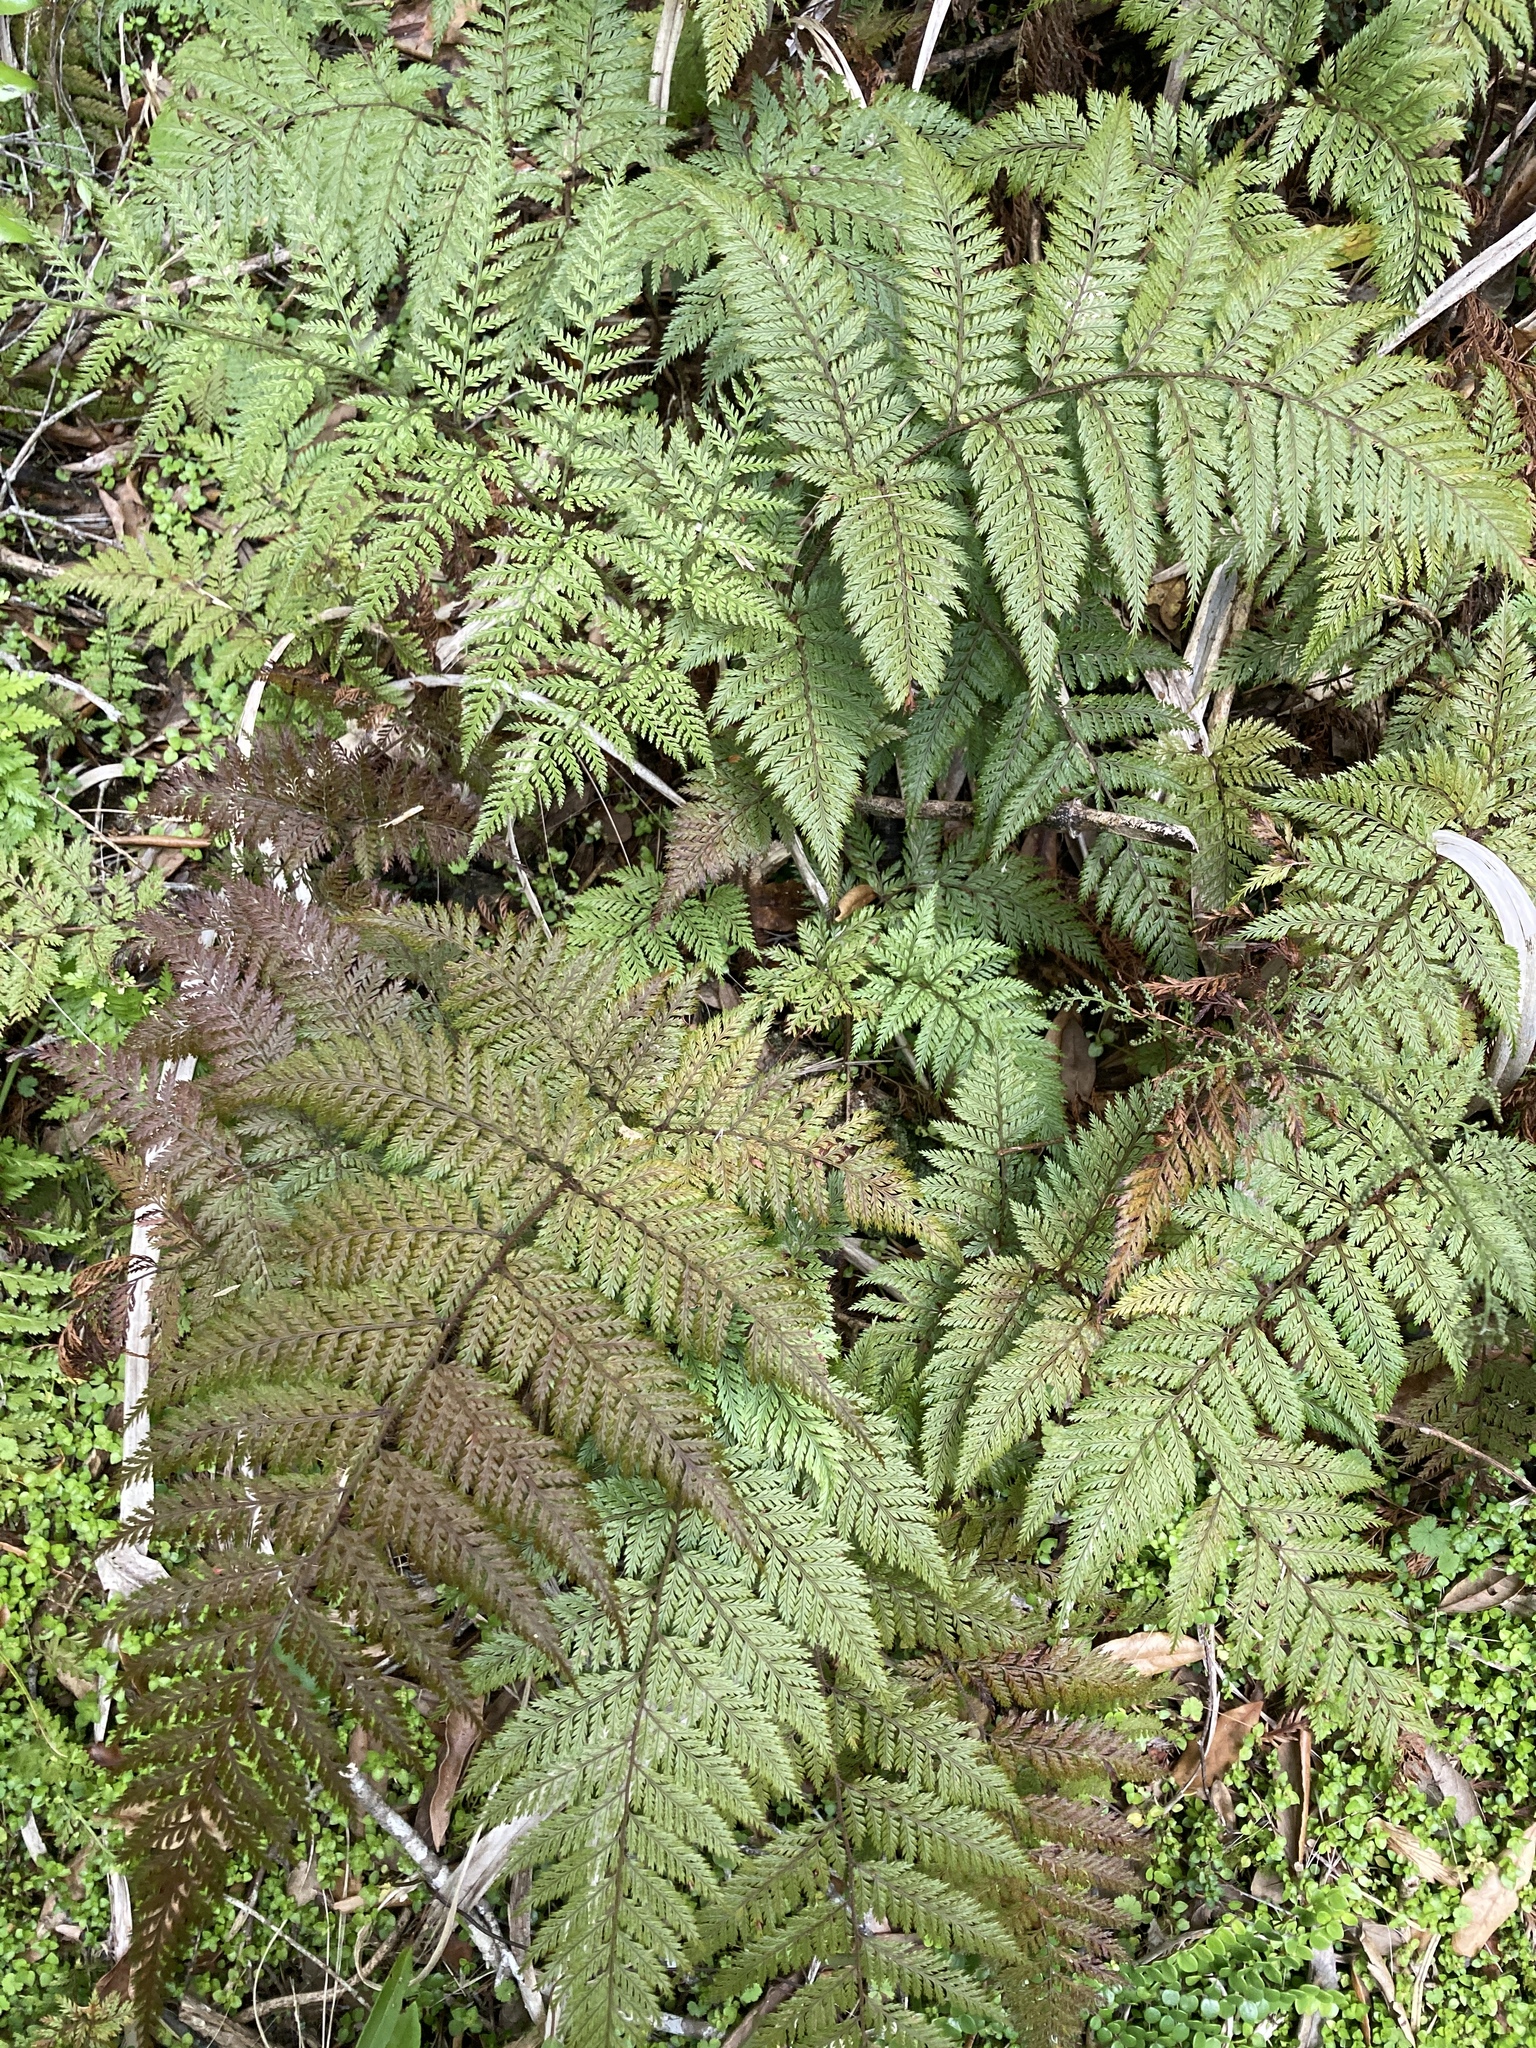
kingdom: Plantae
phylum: Tracheophyta
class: Polypodiopsida
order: Polypodiales
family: Dryopteridaceae
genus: Lastreopsis
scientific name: Lastreopsis hispida
